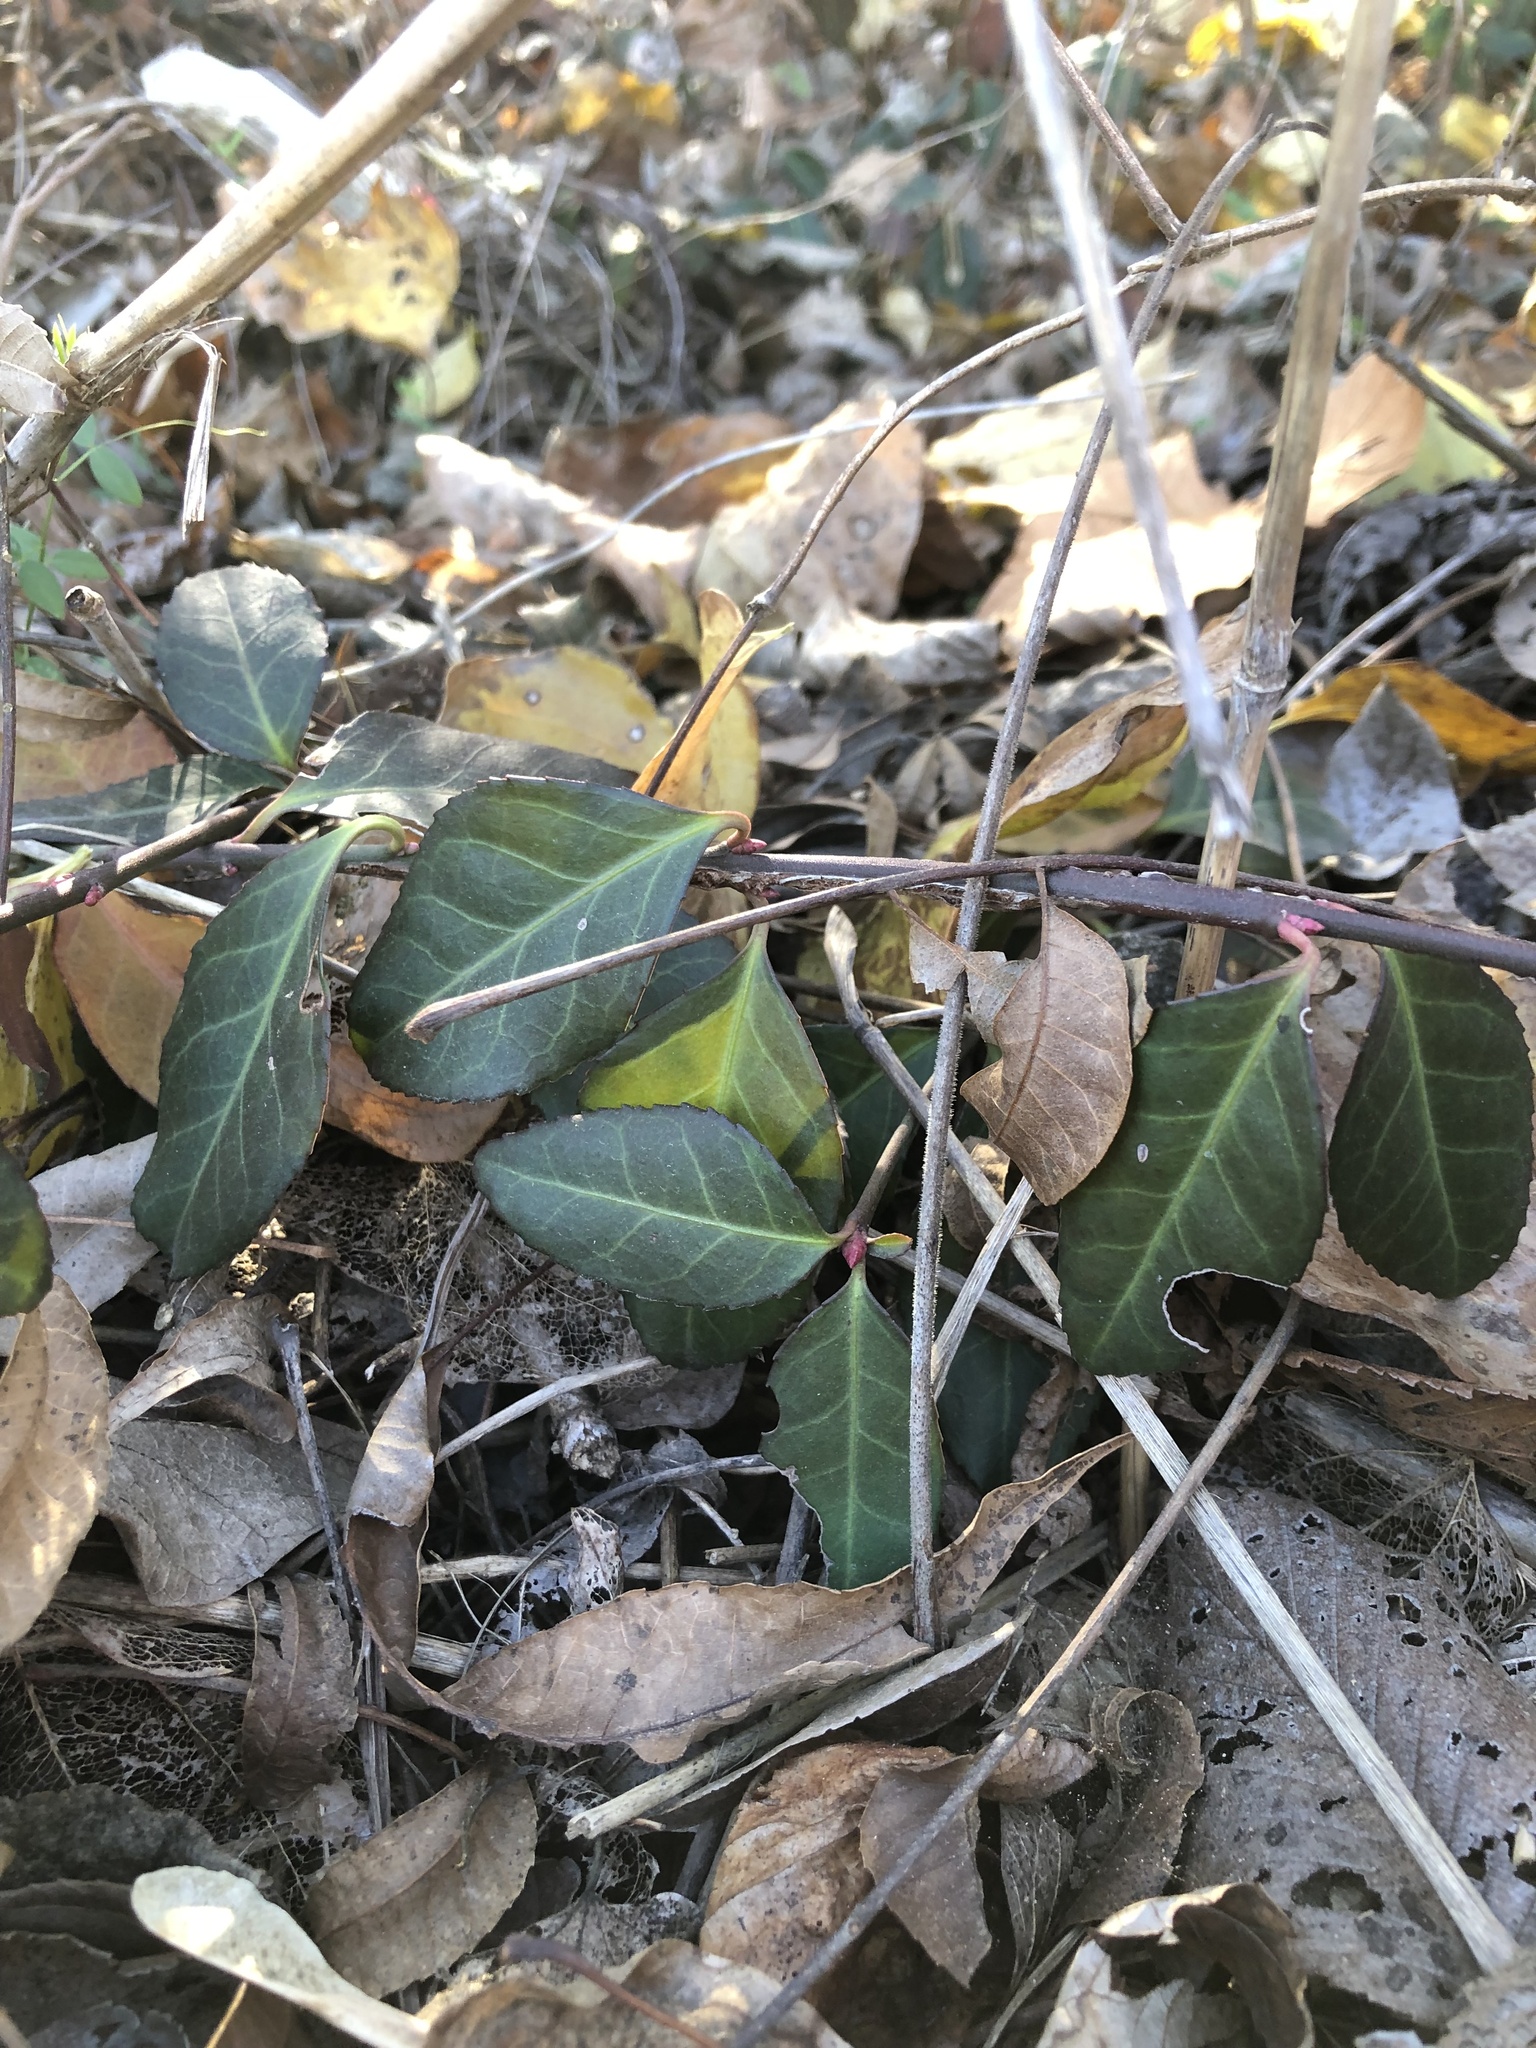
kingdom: Plantae
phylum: Tracheophyta
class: Magnoliopsida
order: Celastrales
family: Celastraceae
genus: Euonymus
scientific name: Euonymus fortunei
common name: Climbing euonymus
